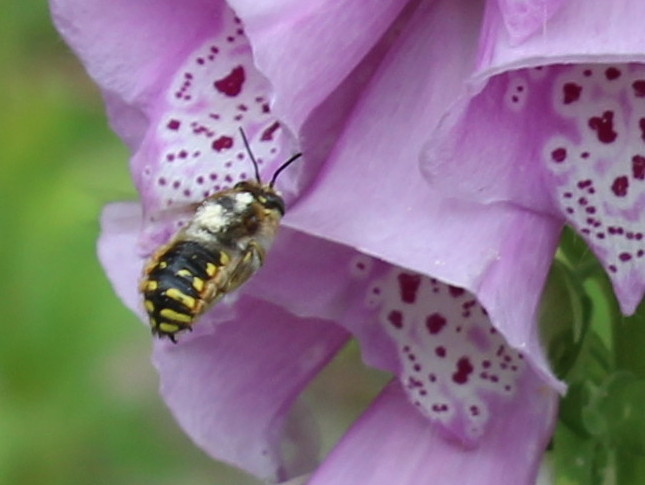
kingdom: Animalia
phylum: Arthropoda
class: Insecta
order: Hymenoptera
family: Megachilidae
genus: Anthidium
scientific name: Anthidium manicatum
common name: Wool carder bee
